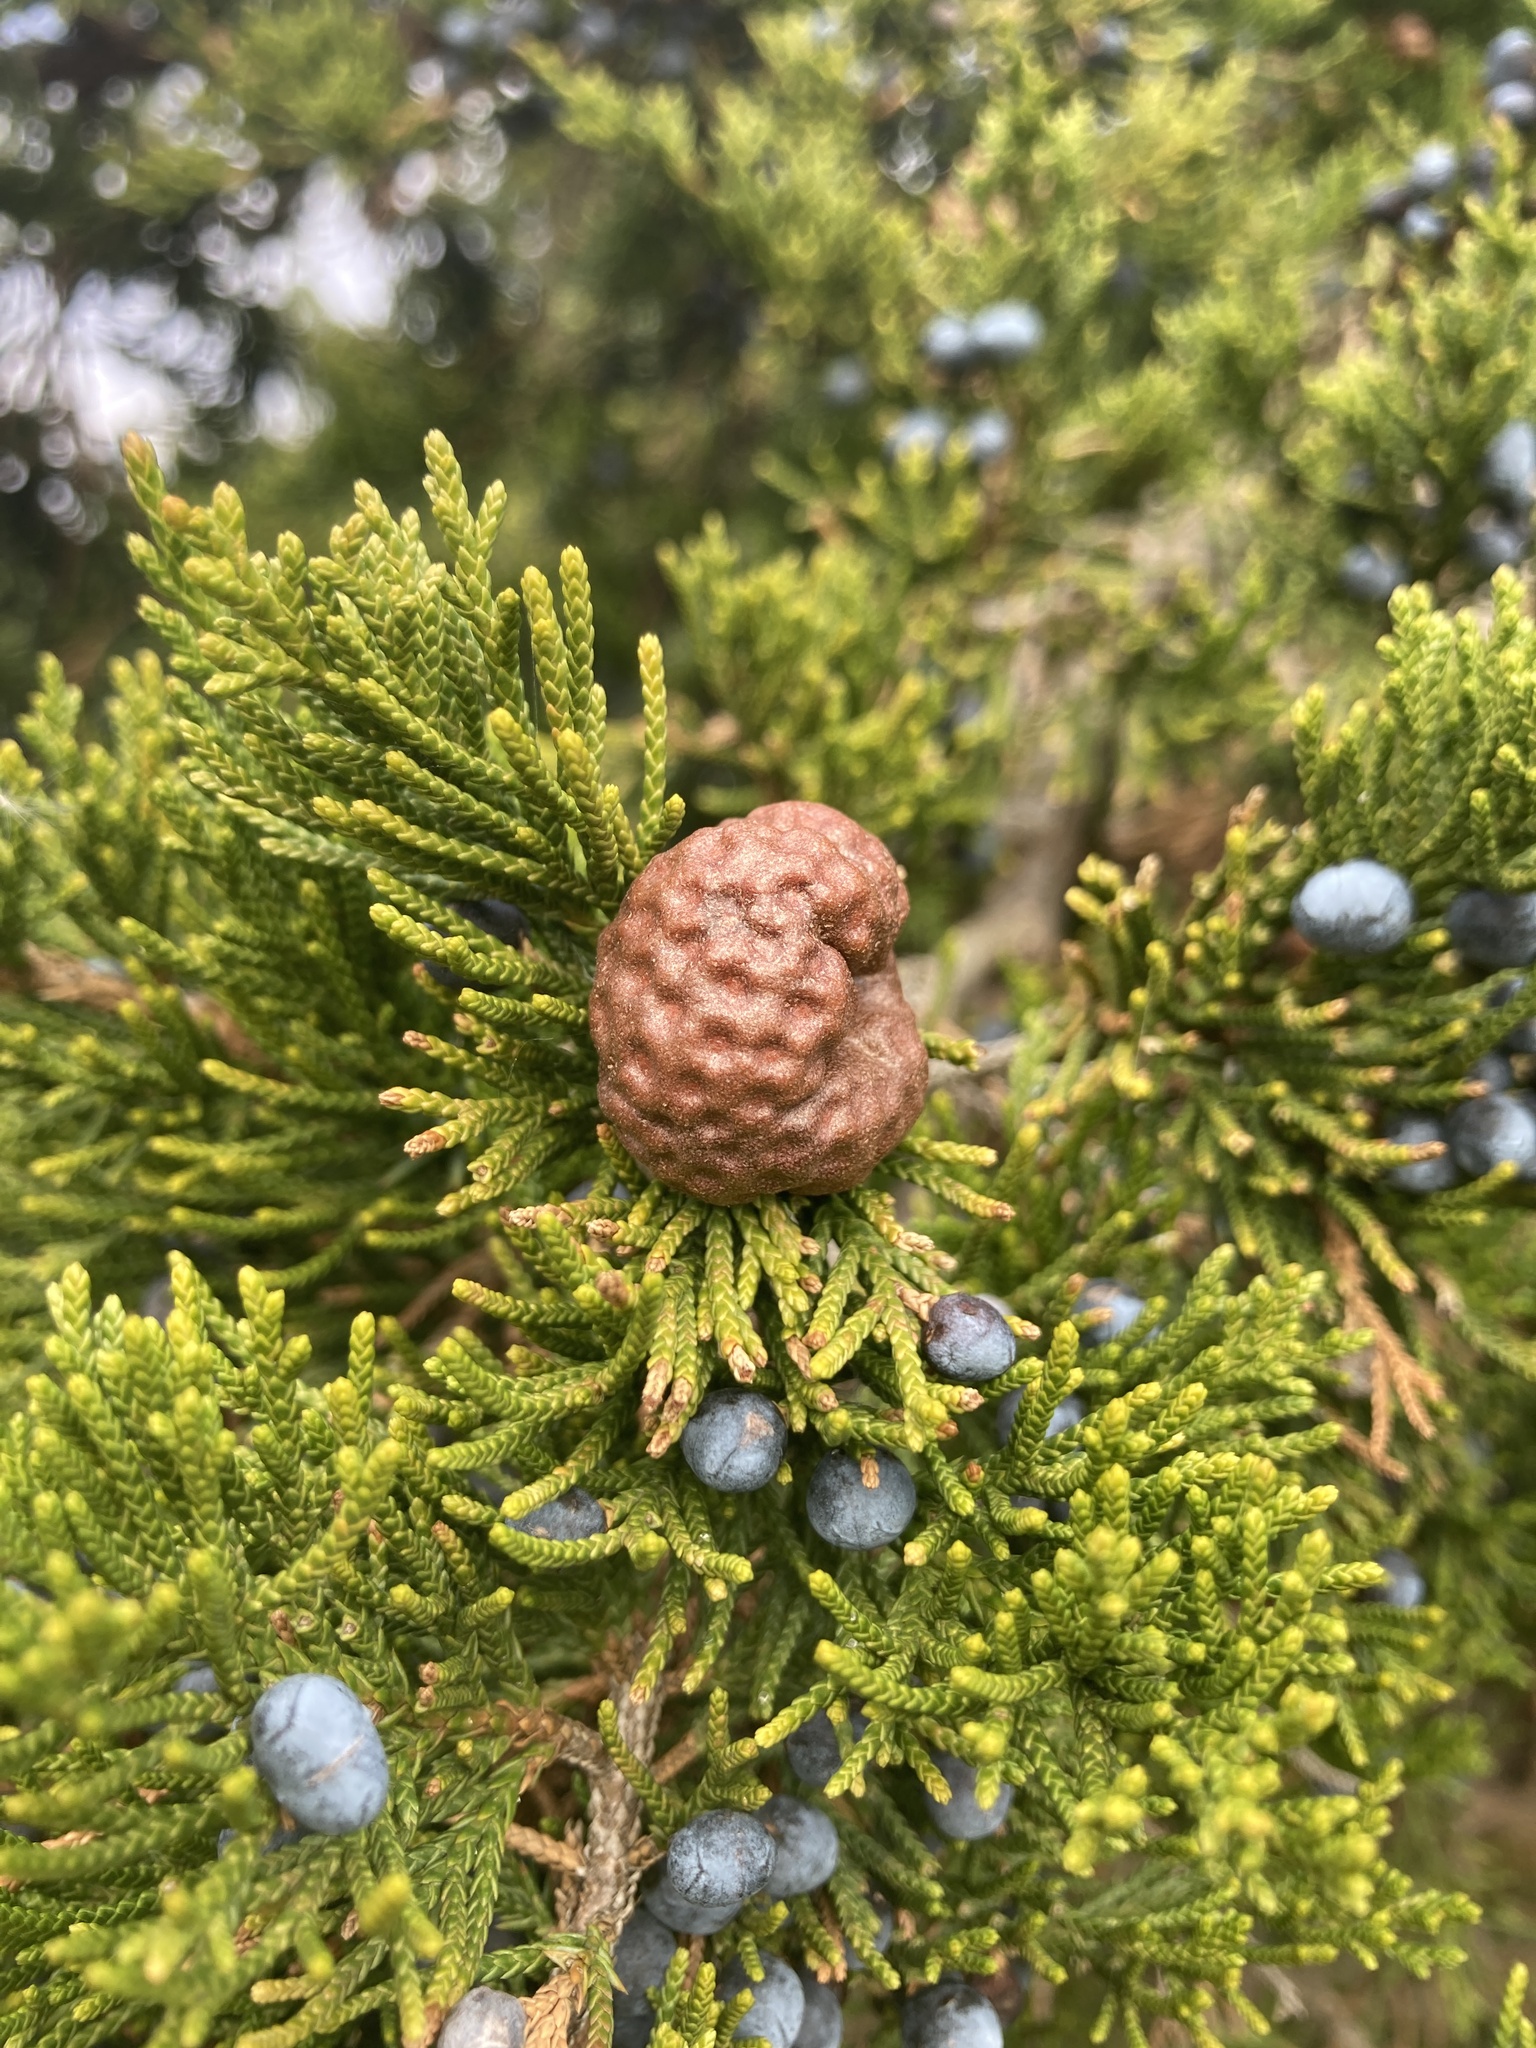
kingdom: Fungi
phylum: Basidiomycota
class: Pucciniomycetes
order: Pucciniales
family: Gymnosporangiaceae
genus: Gymnosporangium
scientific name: Gymnosporangium juniperi-virginianae
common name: Juniper-apple rust
